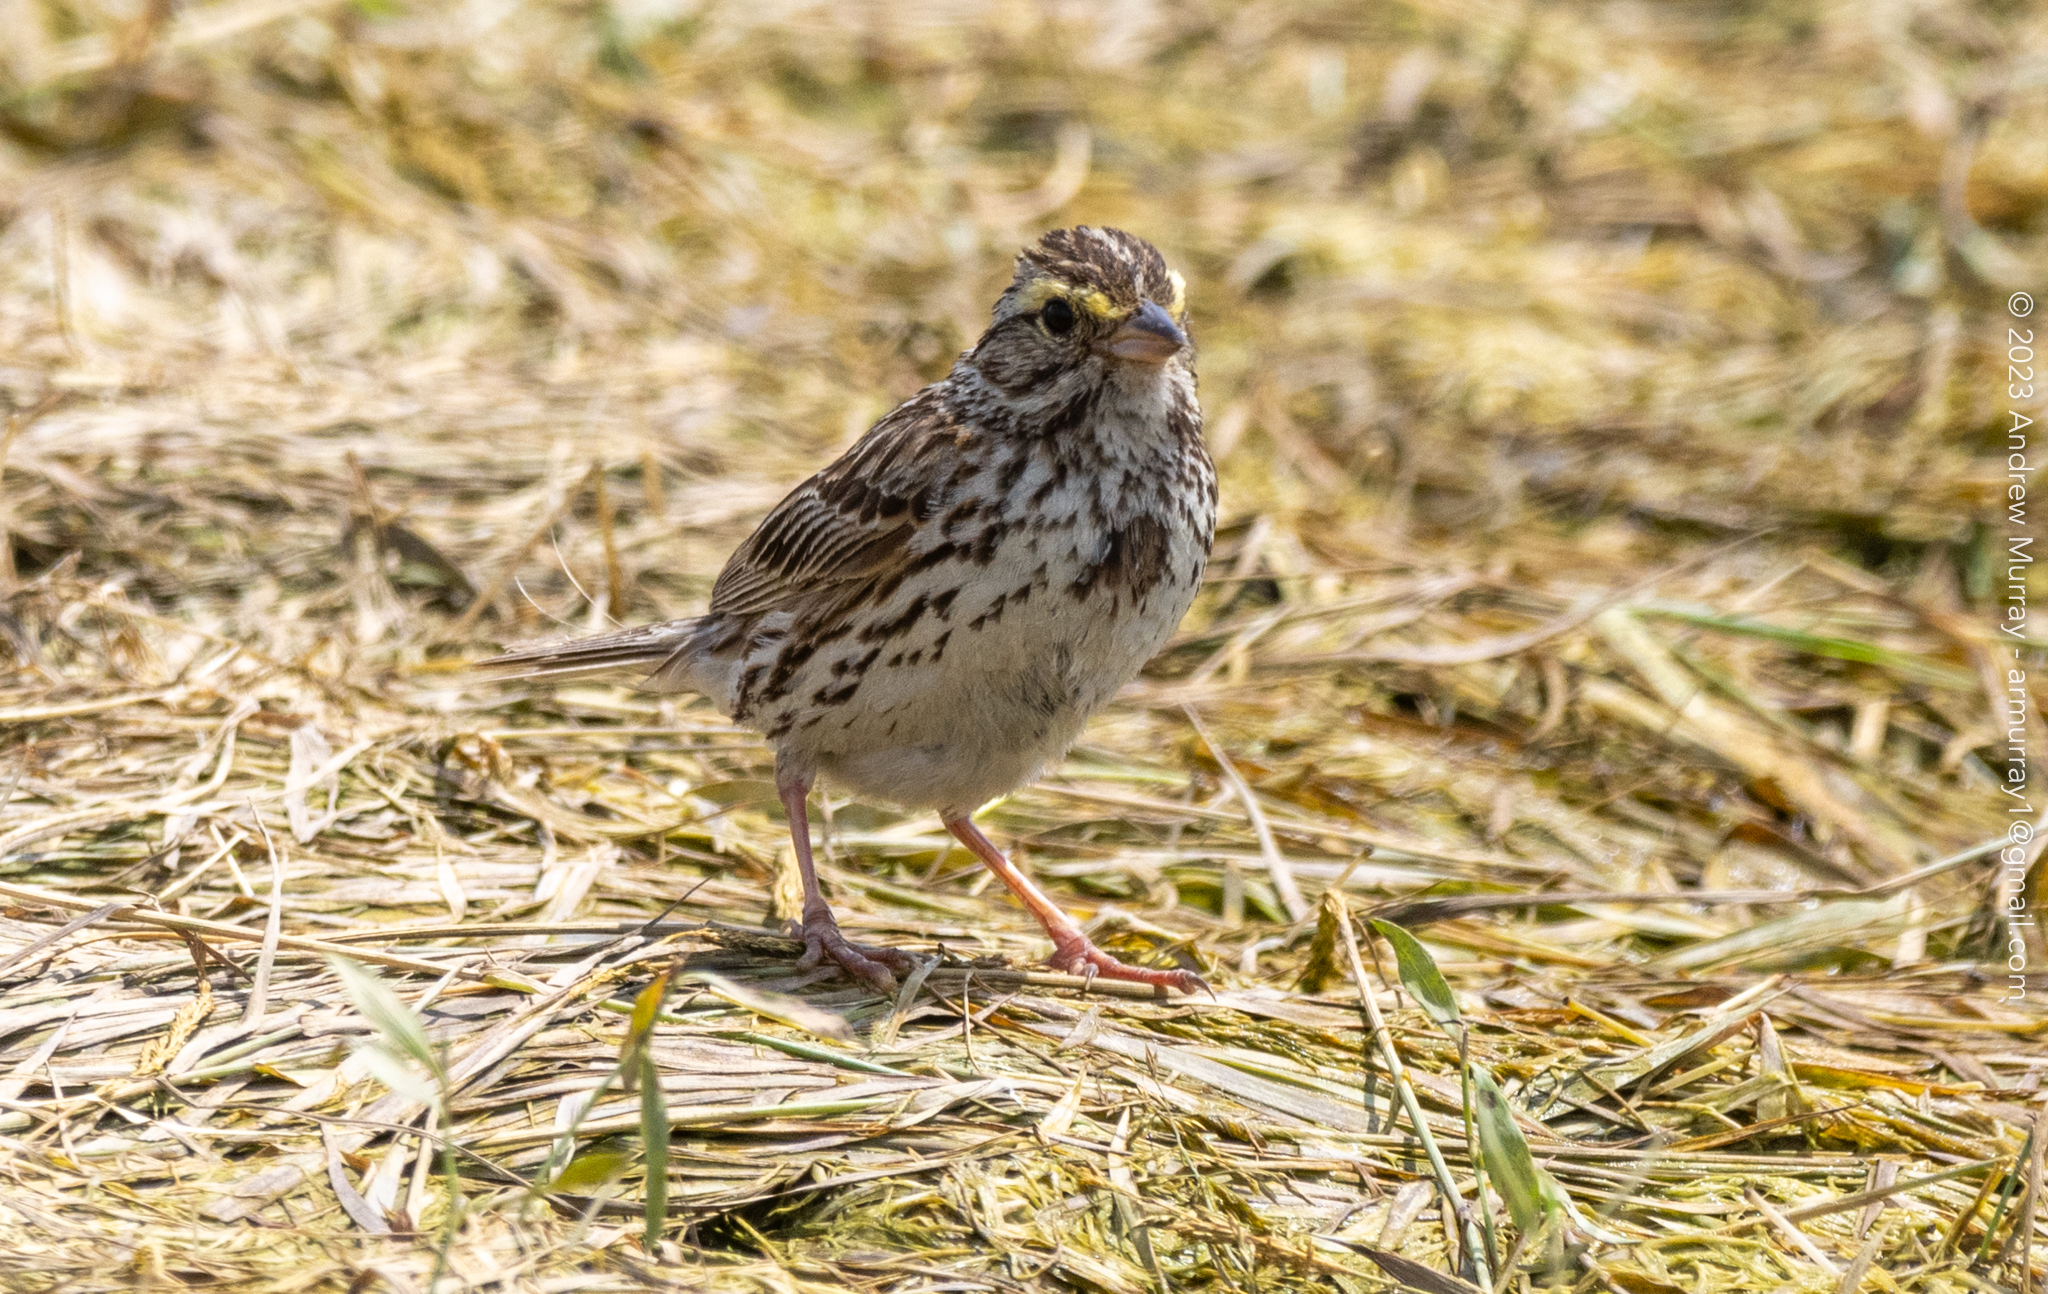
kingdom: Animalia
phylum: Chordata
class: Aves
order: Passeriformes
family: Passerellidae
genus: Passerculus
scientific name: Passerculus sandwichensis
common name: Savannah sparrow
